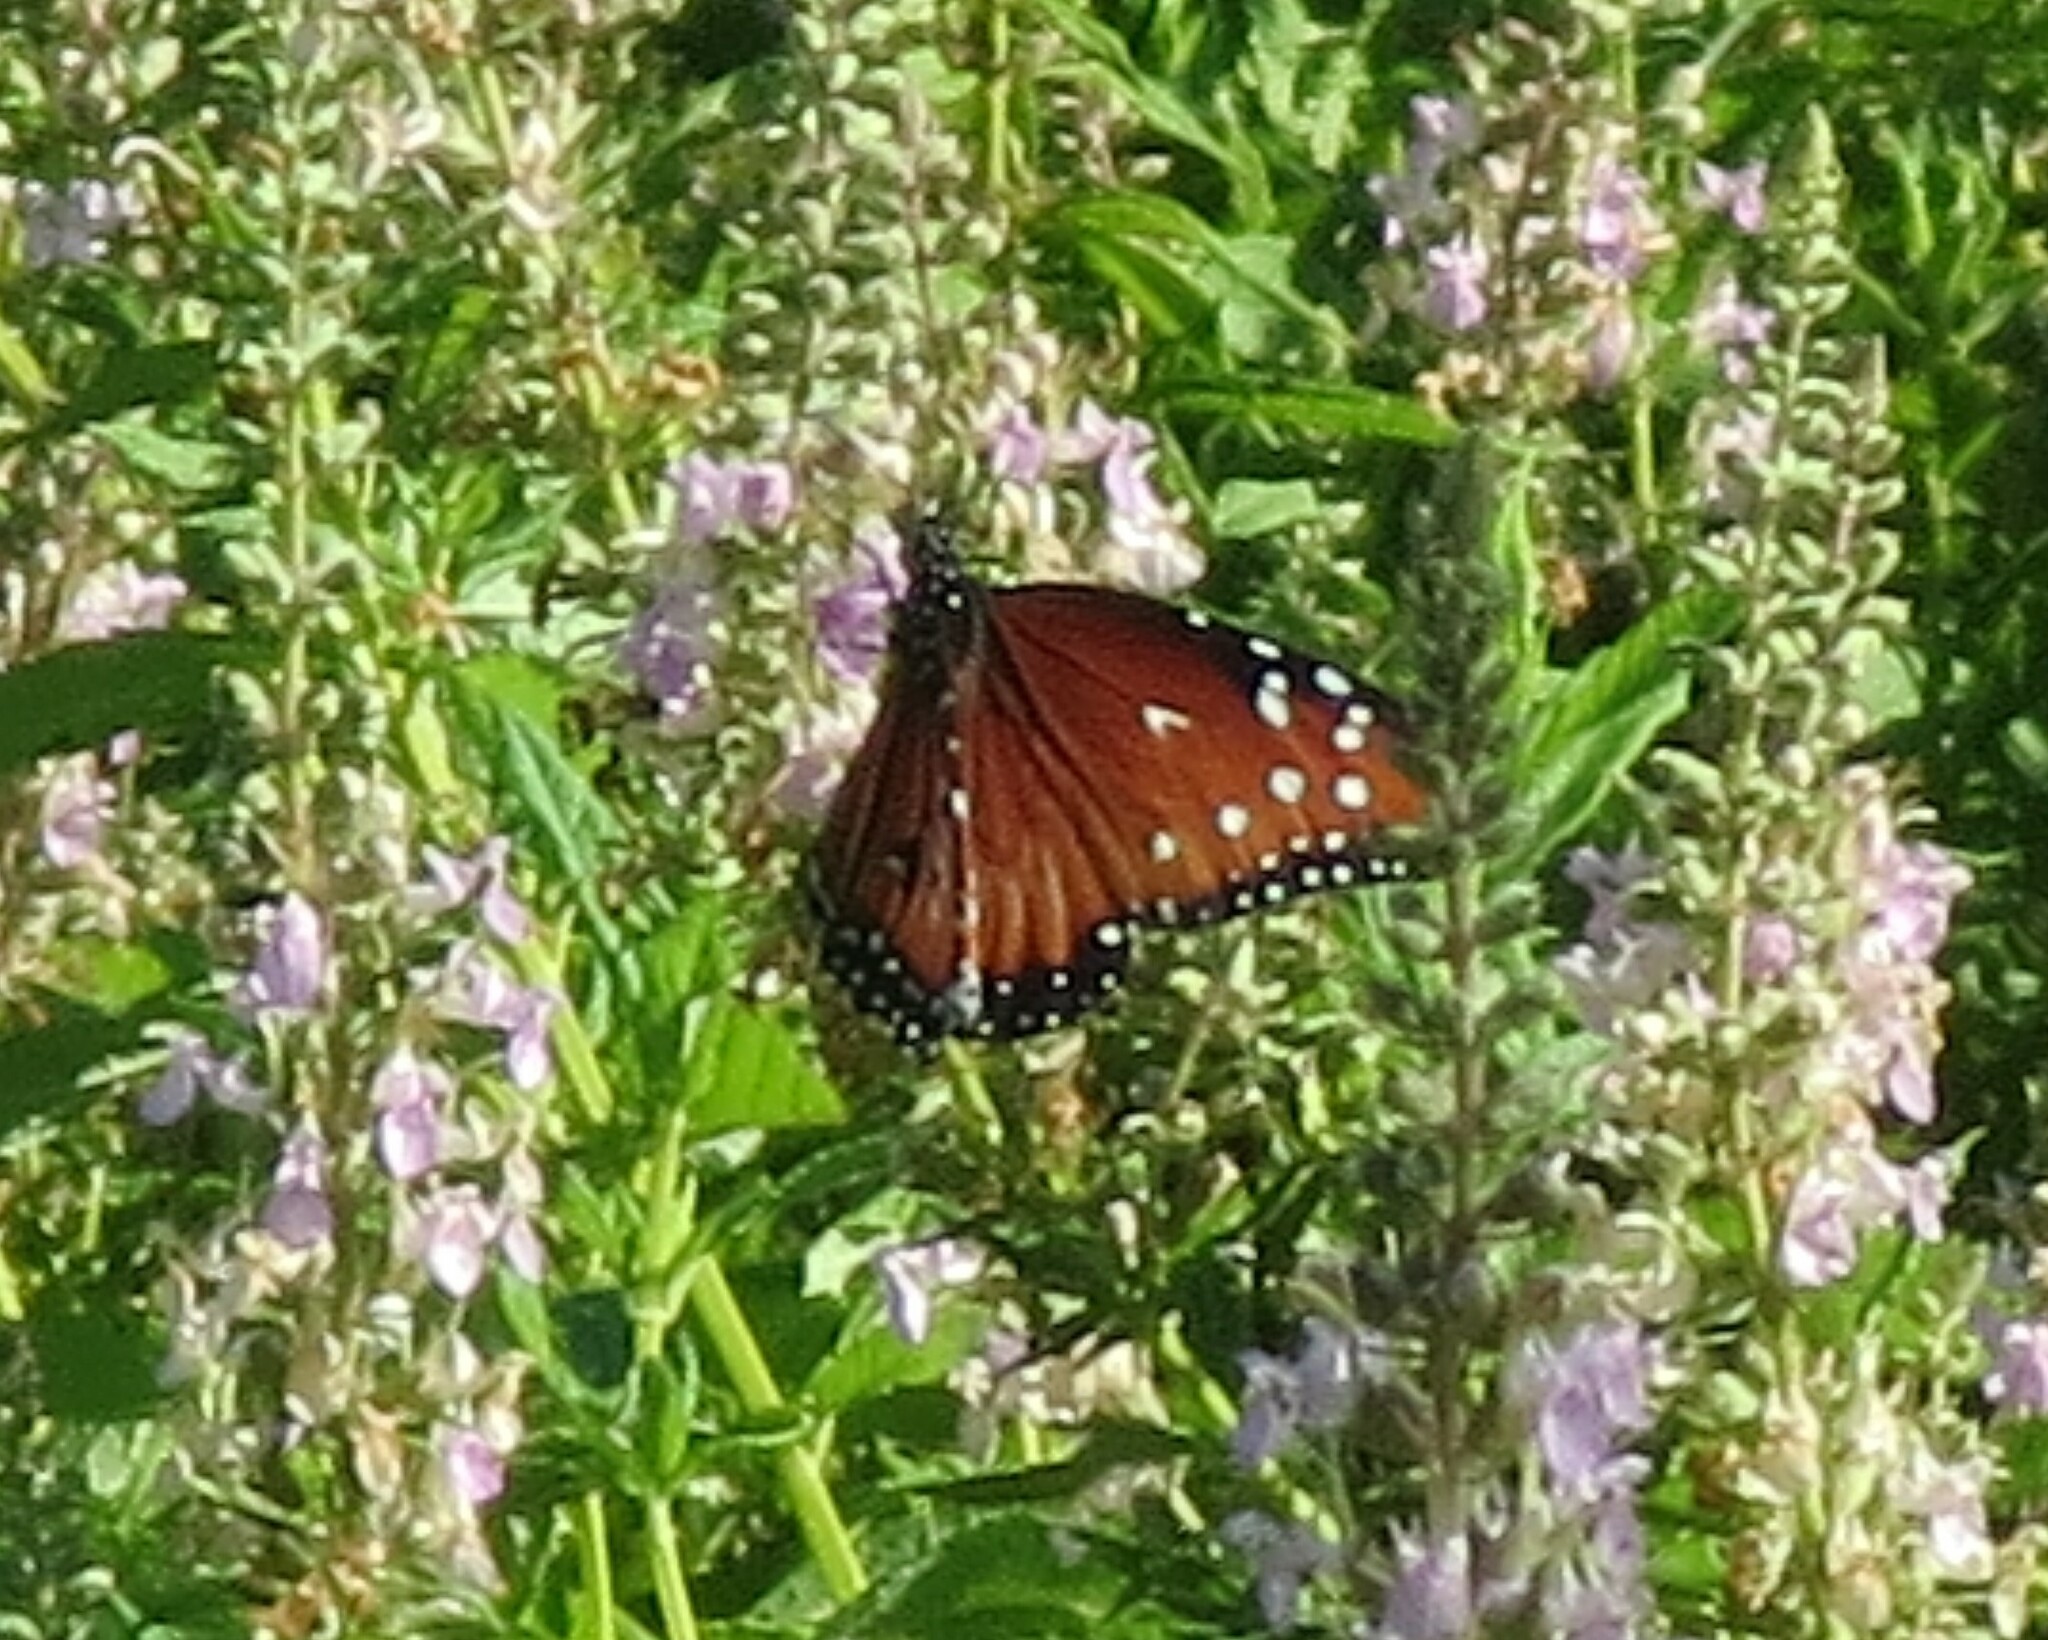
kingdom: Animalia
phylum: Arthropoda
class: Insecta
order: Lepidoptera
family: Nymphalidae
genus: Danaus
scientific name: Danaus gilippus
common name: Queen
